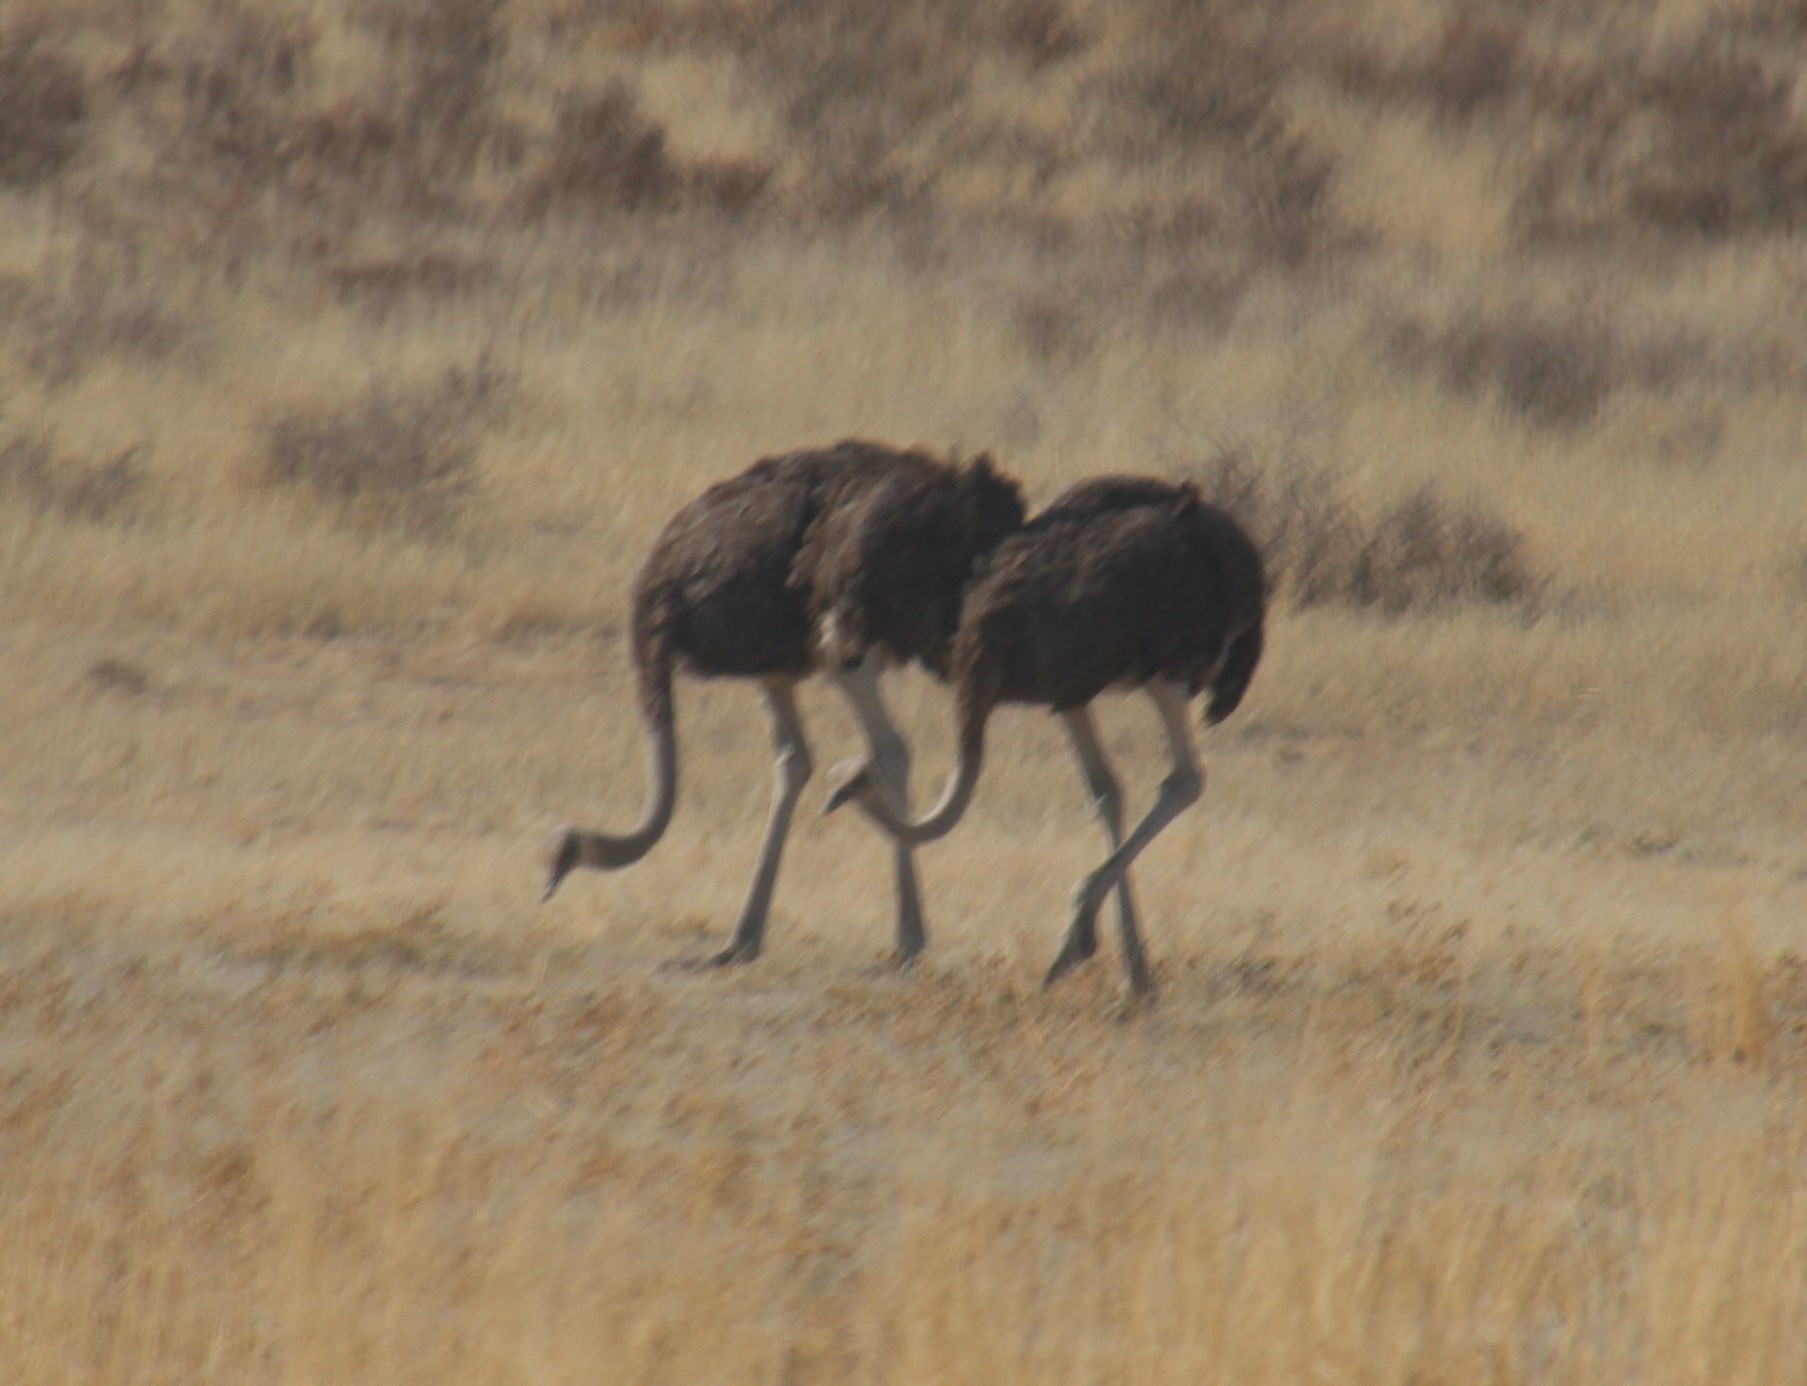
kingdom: Animalia
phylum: Chordata
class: Aves
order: Struthioniformes
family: Struthionidae
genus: Struthio
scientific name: Struthio camelus
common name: Common ostrich
